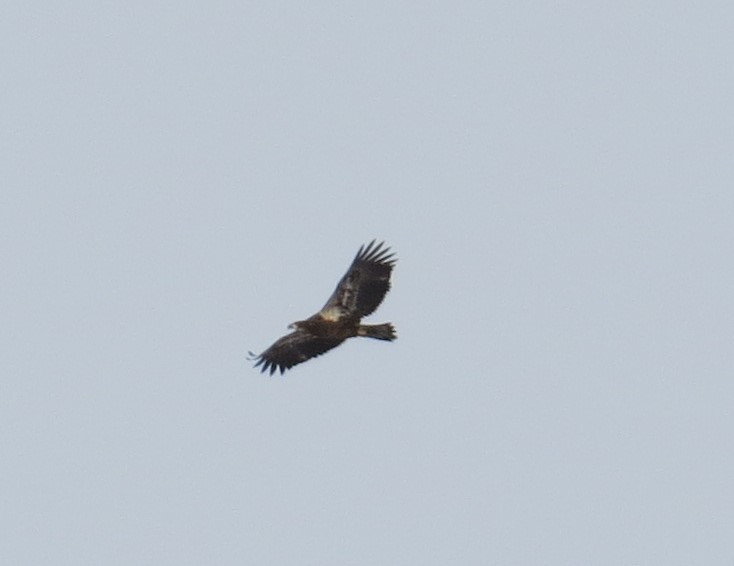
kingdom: Animalia
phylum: Chordata
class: Aves
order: Accipitriformes
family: Accipitridae
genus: Haliaeetus
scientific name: Haliaeetus leucocephalus
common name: Bald eagle
